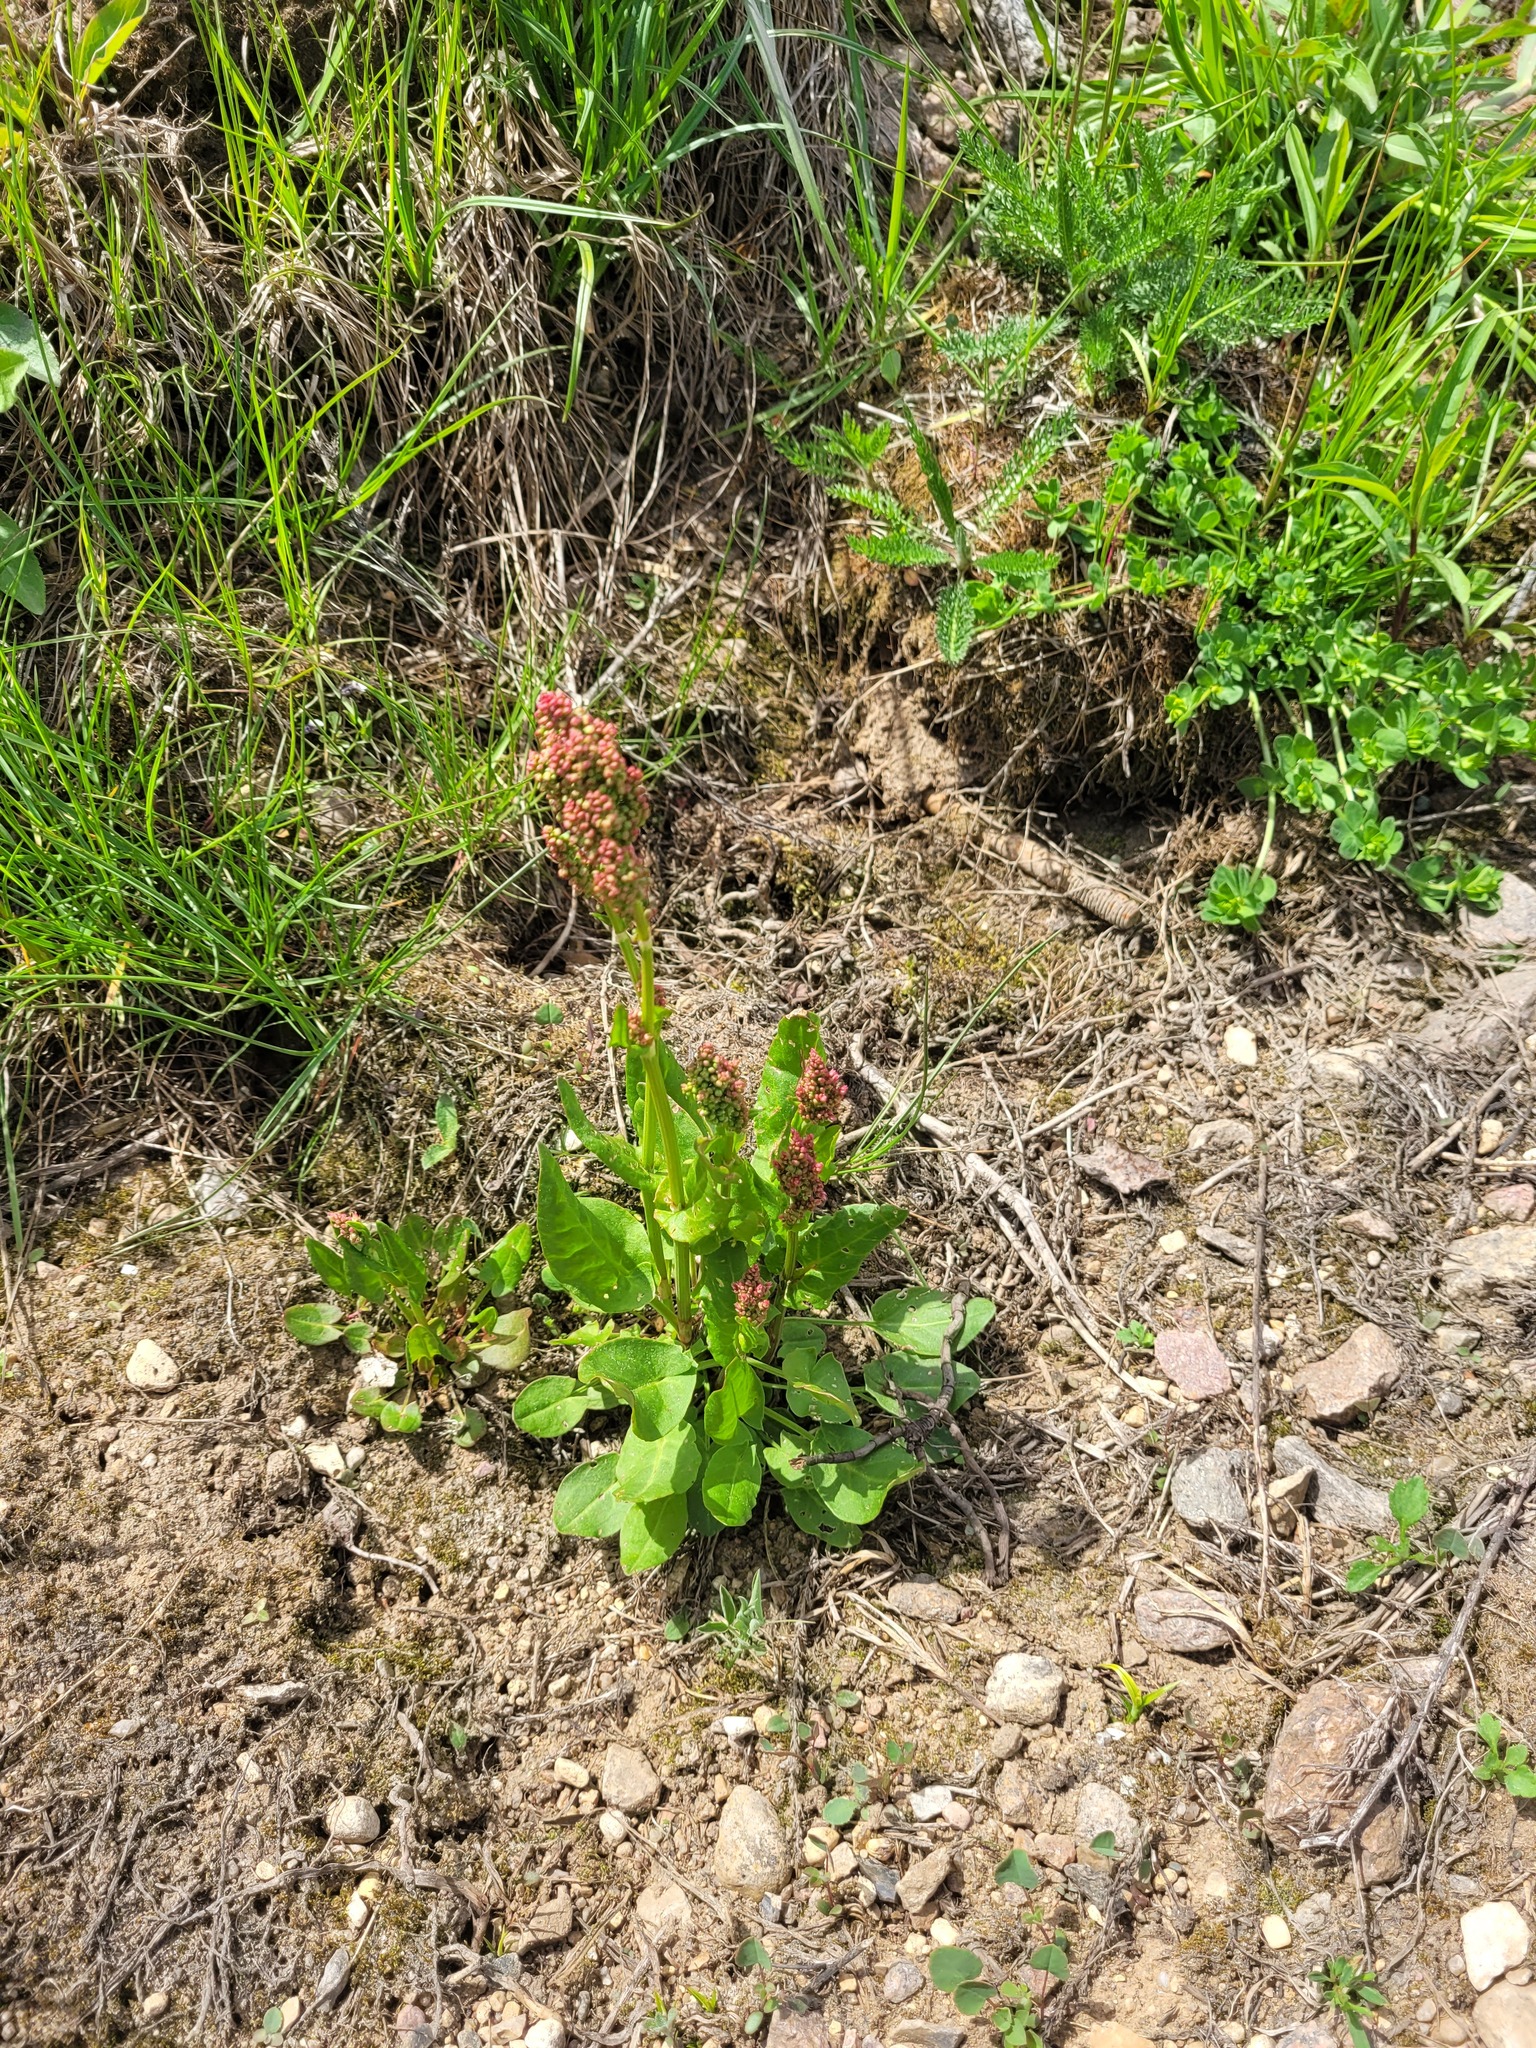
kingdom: Plantae
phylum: Tracheophyta
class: Magnoliopsida
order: Caryophyllales
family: Polygonaceae
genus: Rumex
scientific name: Rumex thyrsiflorus
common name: Garden sorrel
